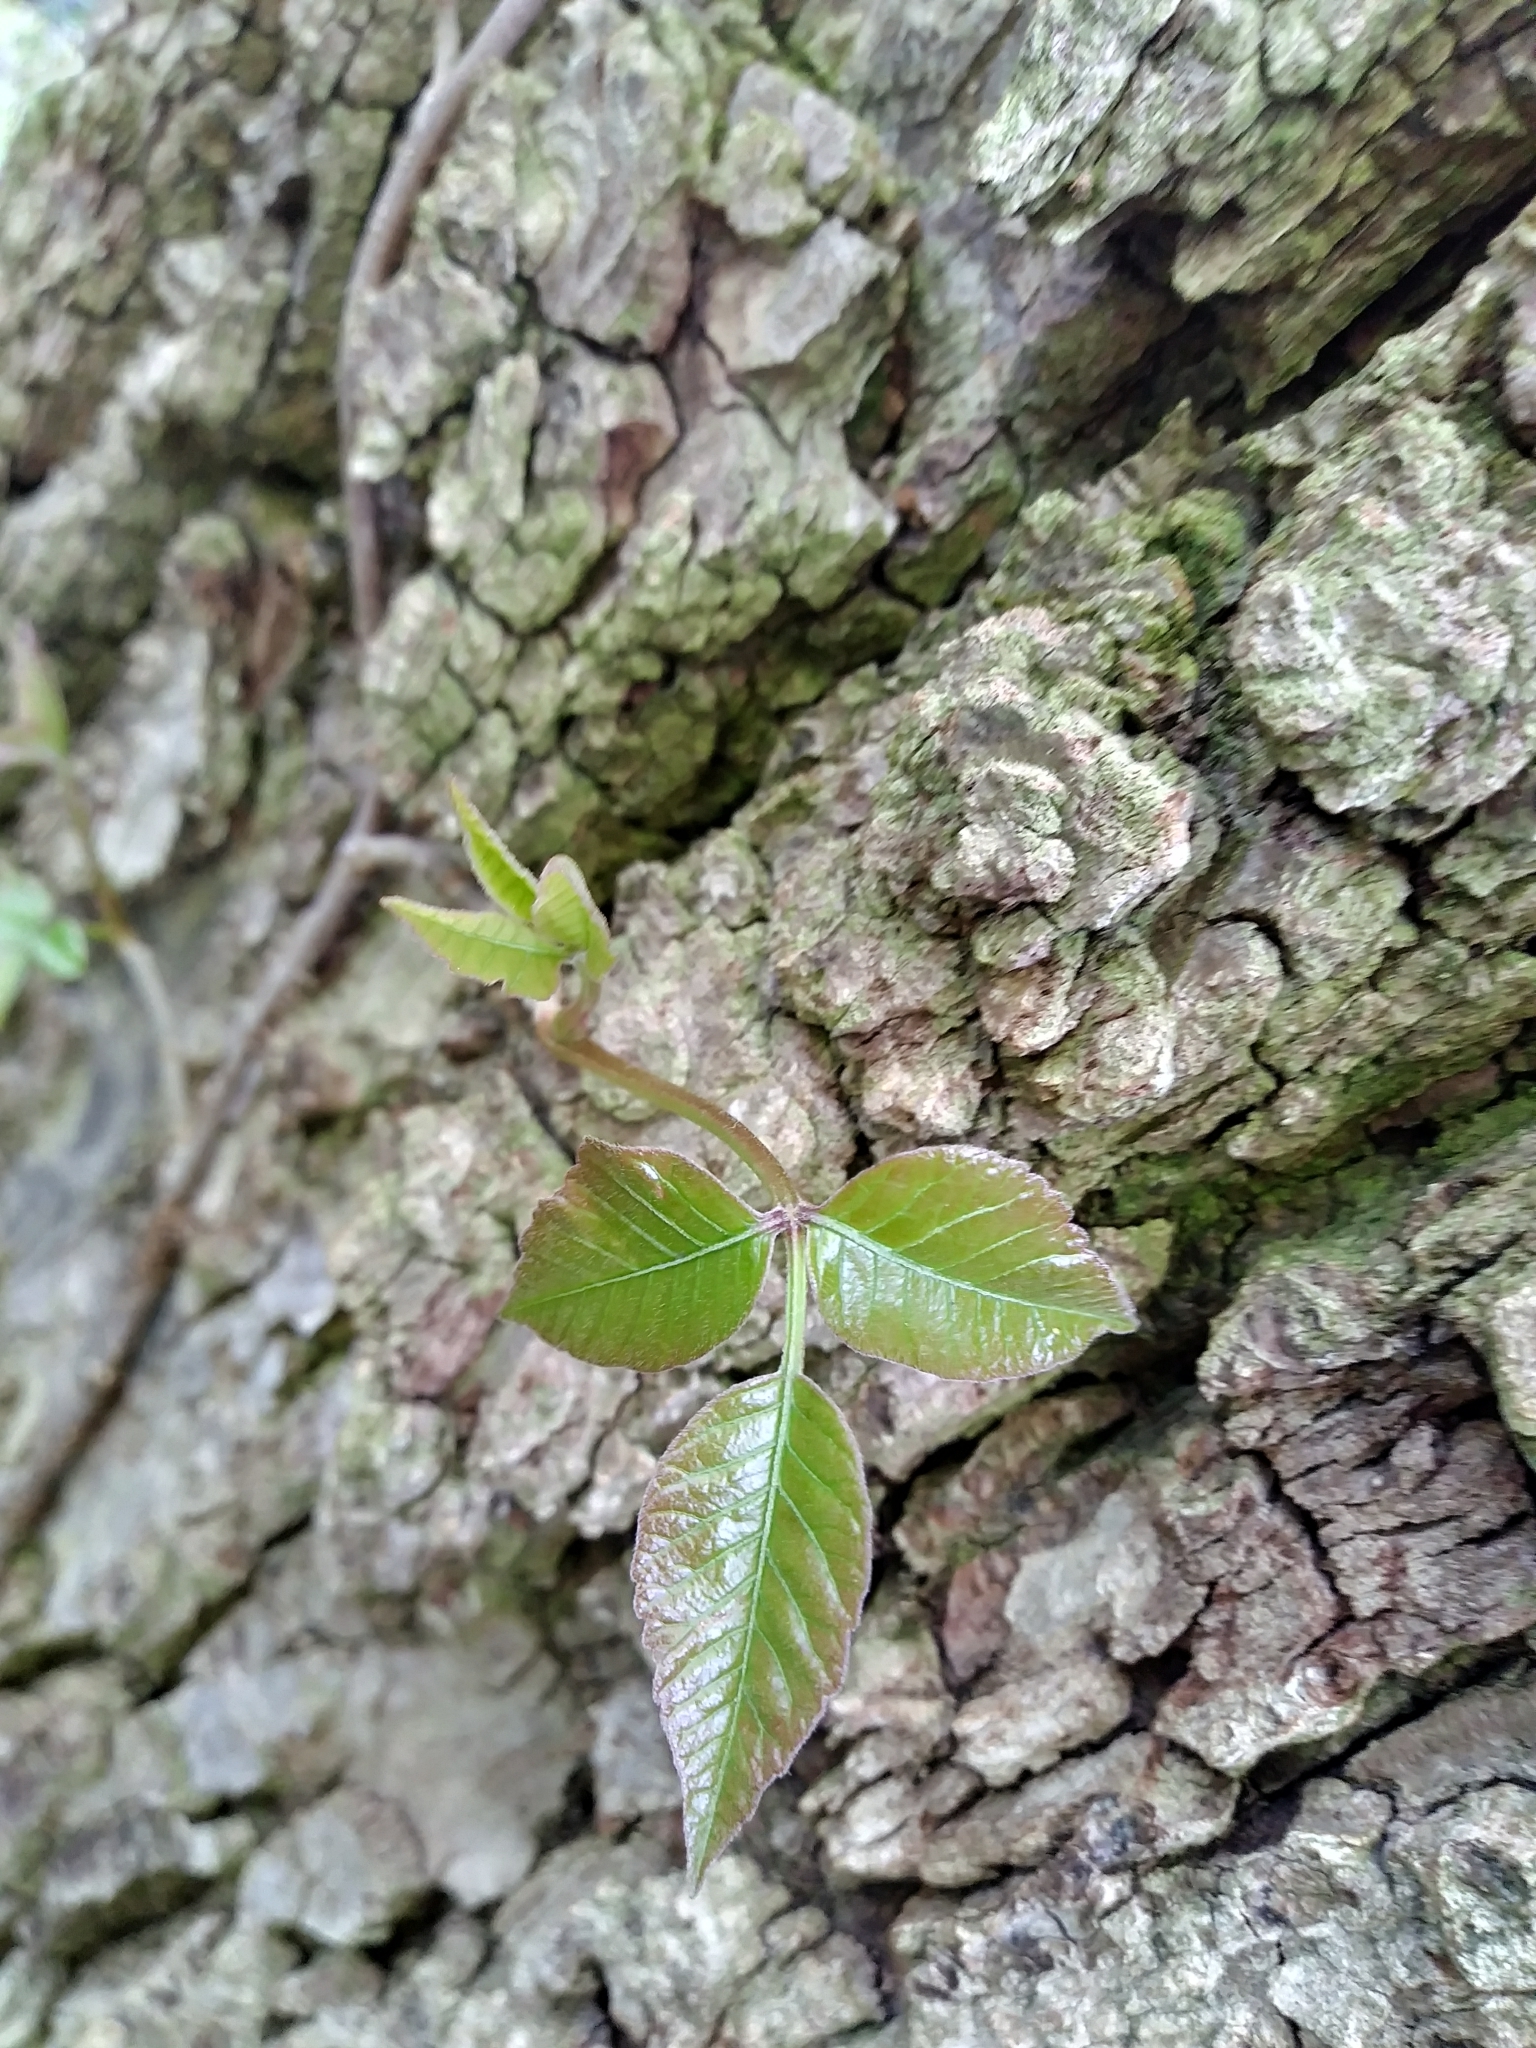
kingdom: Plantae
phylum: Tracheophyta
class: Magnoliopsida
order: Sapindales
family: Anacardiaceae
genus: Toxicodendron
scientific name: Toxicodendron radicans
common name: Poison ivy
